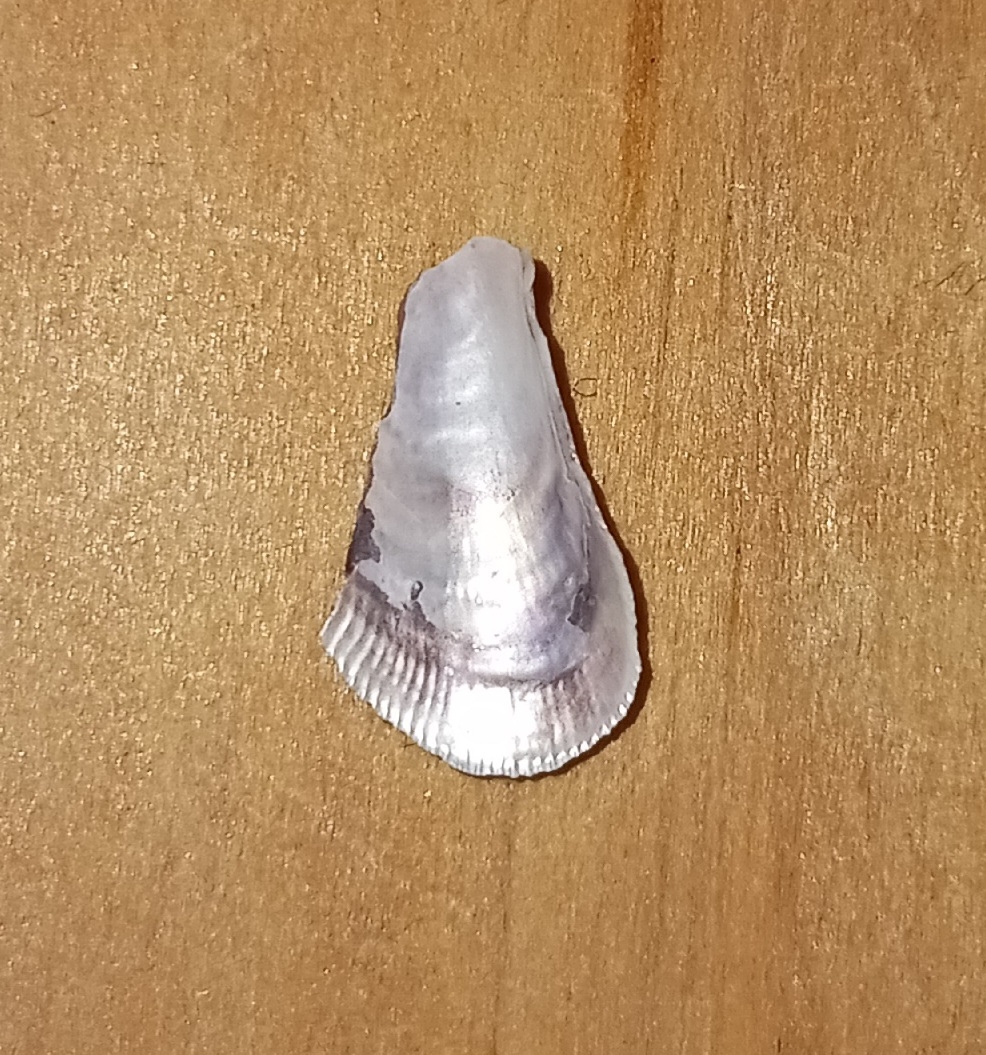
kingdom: Animalia
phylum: Mollusca
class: Bivalvia
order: Mytilida
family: Mytilidae
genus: Geukensia
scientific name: Geukensia demissa
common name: Ribbed mussel
